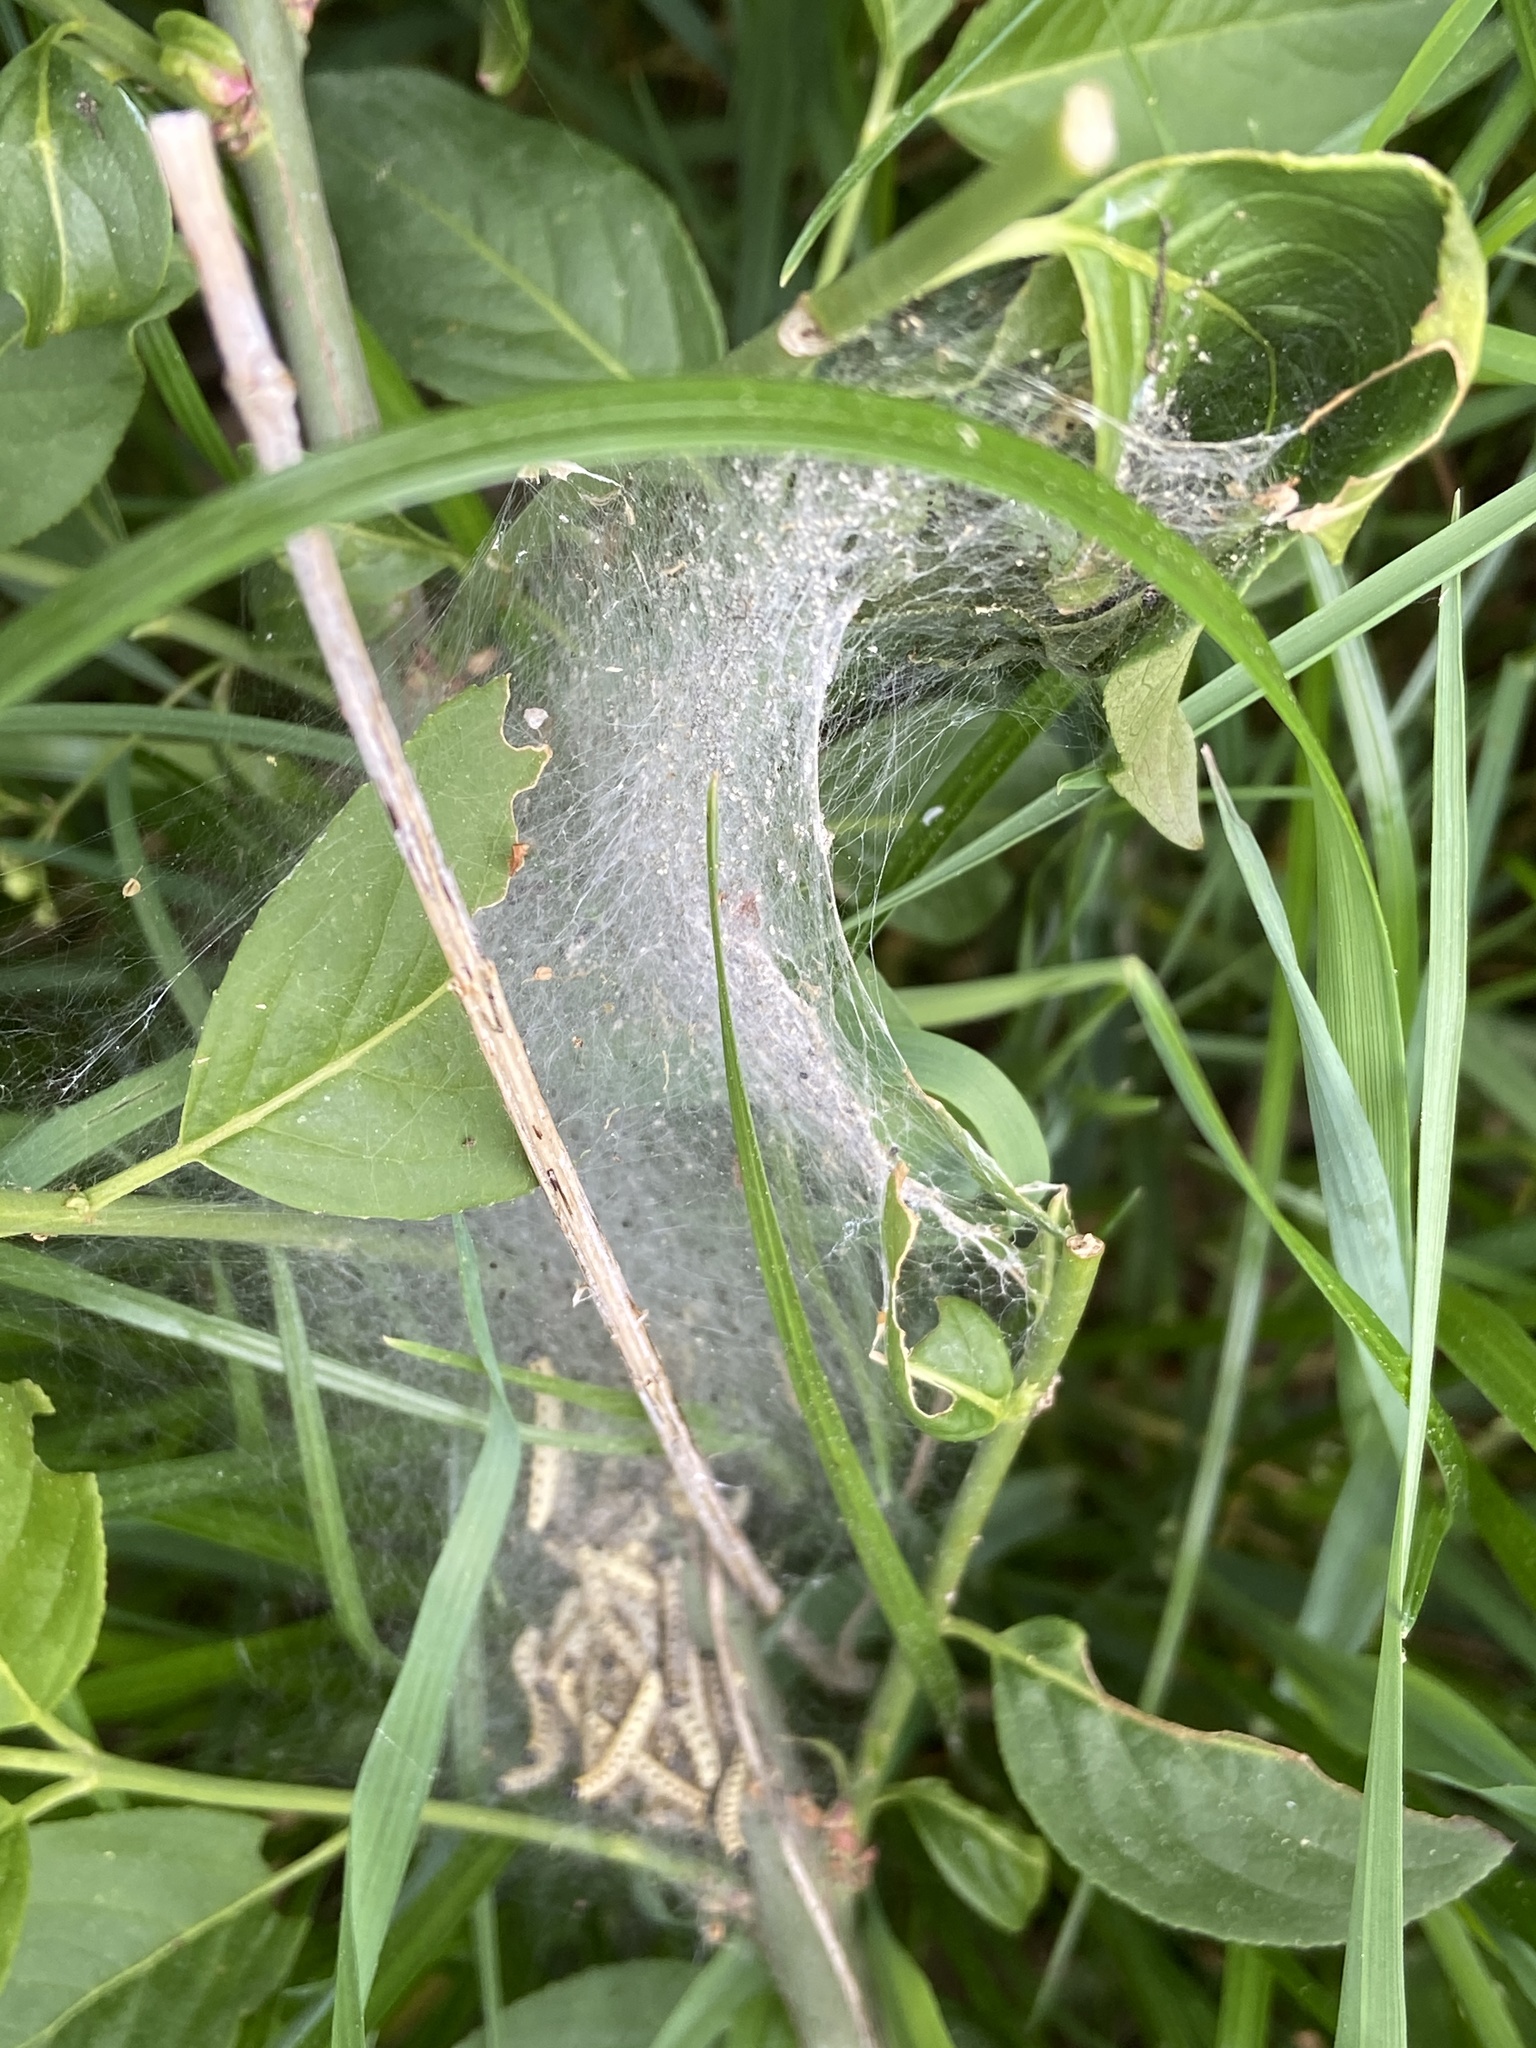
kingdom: Animalia
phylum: Arthropoda
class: Insecta
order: Lepidoptera
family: Yponomeutidae
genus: Yponomeuta
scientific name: Yponomeuta cagnagellus
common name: Spindle ermine
